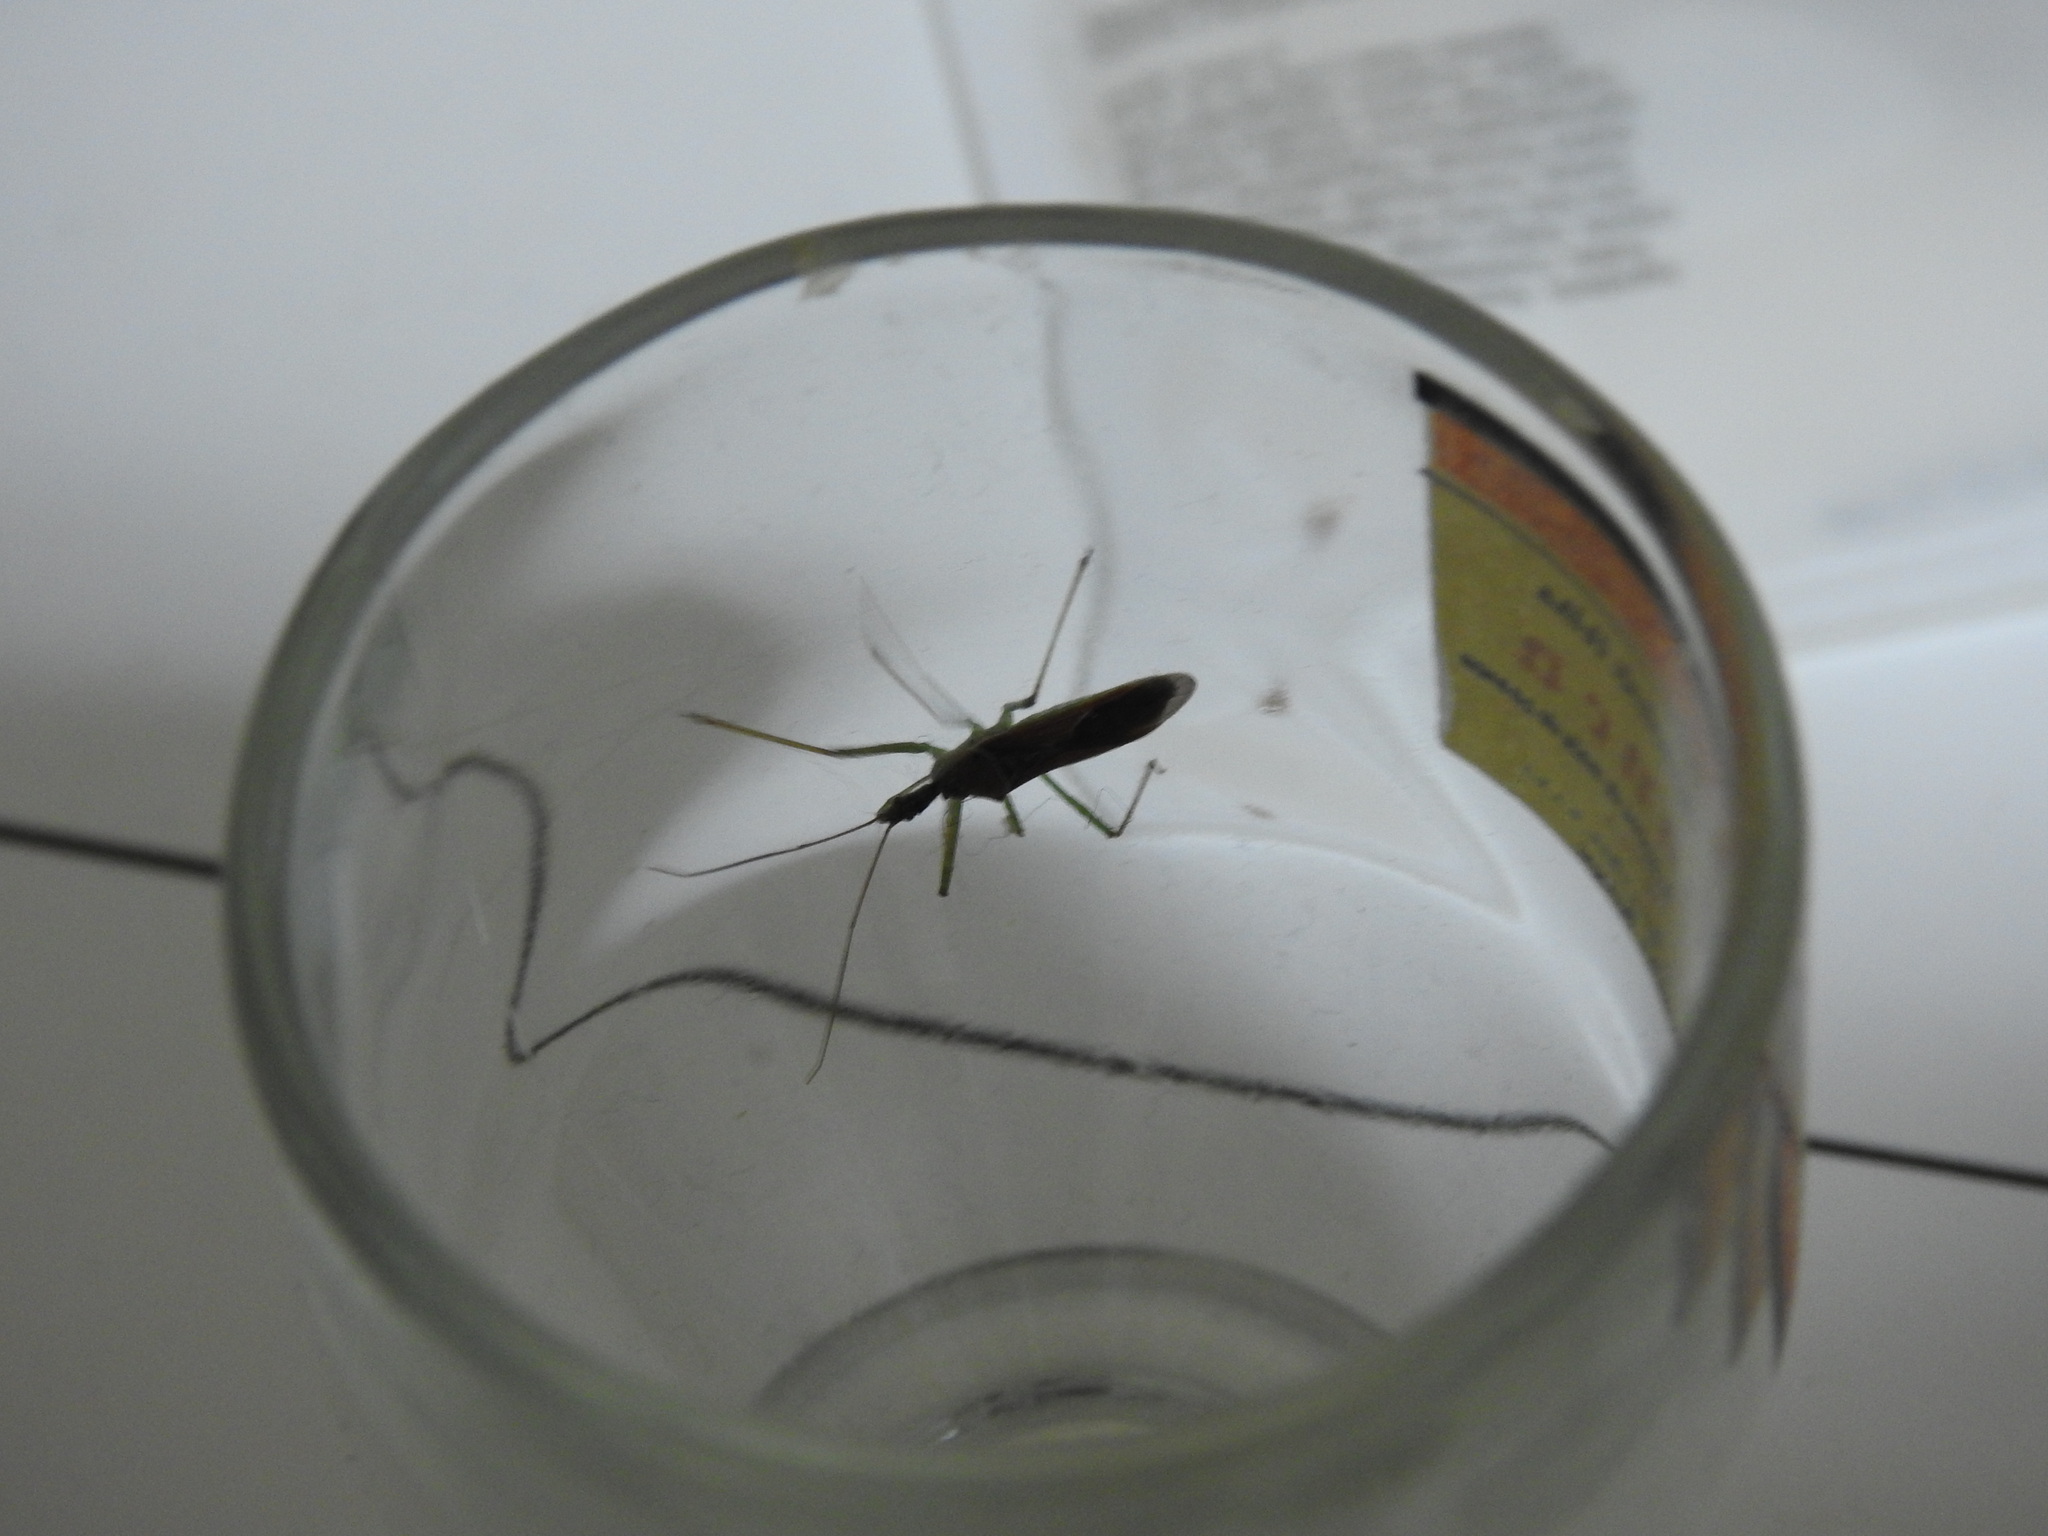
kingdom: Animalia
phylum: Arthropoda
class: Insecta
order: Hemiptera
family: Reduviidae
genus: Zelus
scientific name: Zelus renardii
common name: Assassin bug
